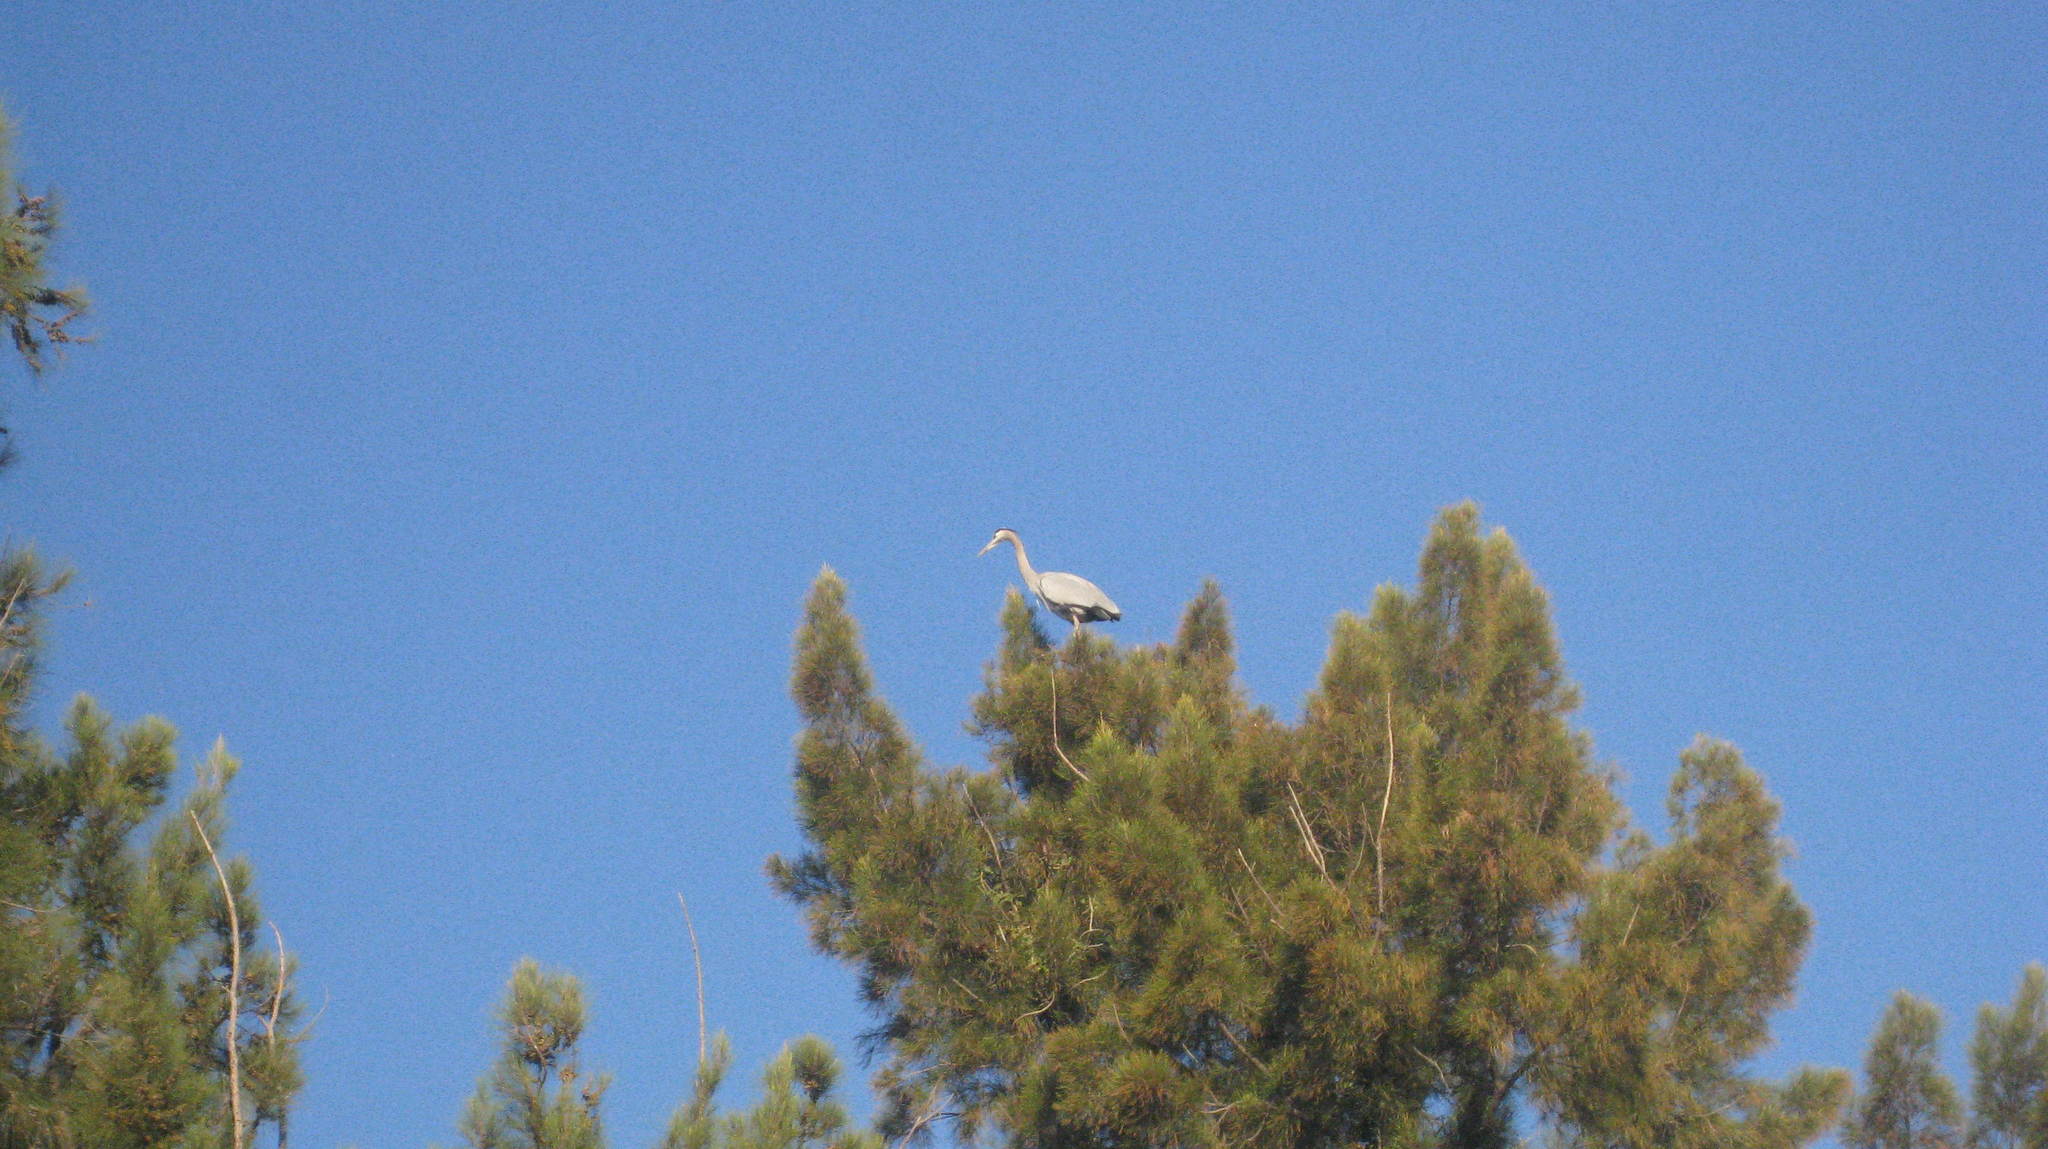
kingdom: Animalia
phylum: Chordata
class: Aves
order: Pelecaniformes
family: Ardeidae
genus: Ardea
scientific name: Ardea herodias
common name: Great blue heron
